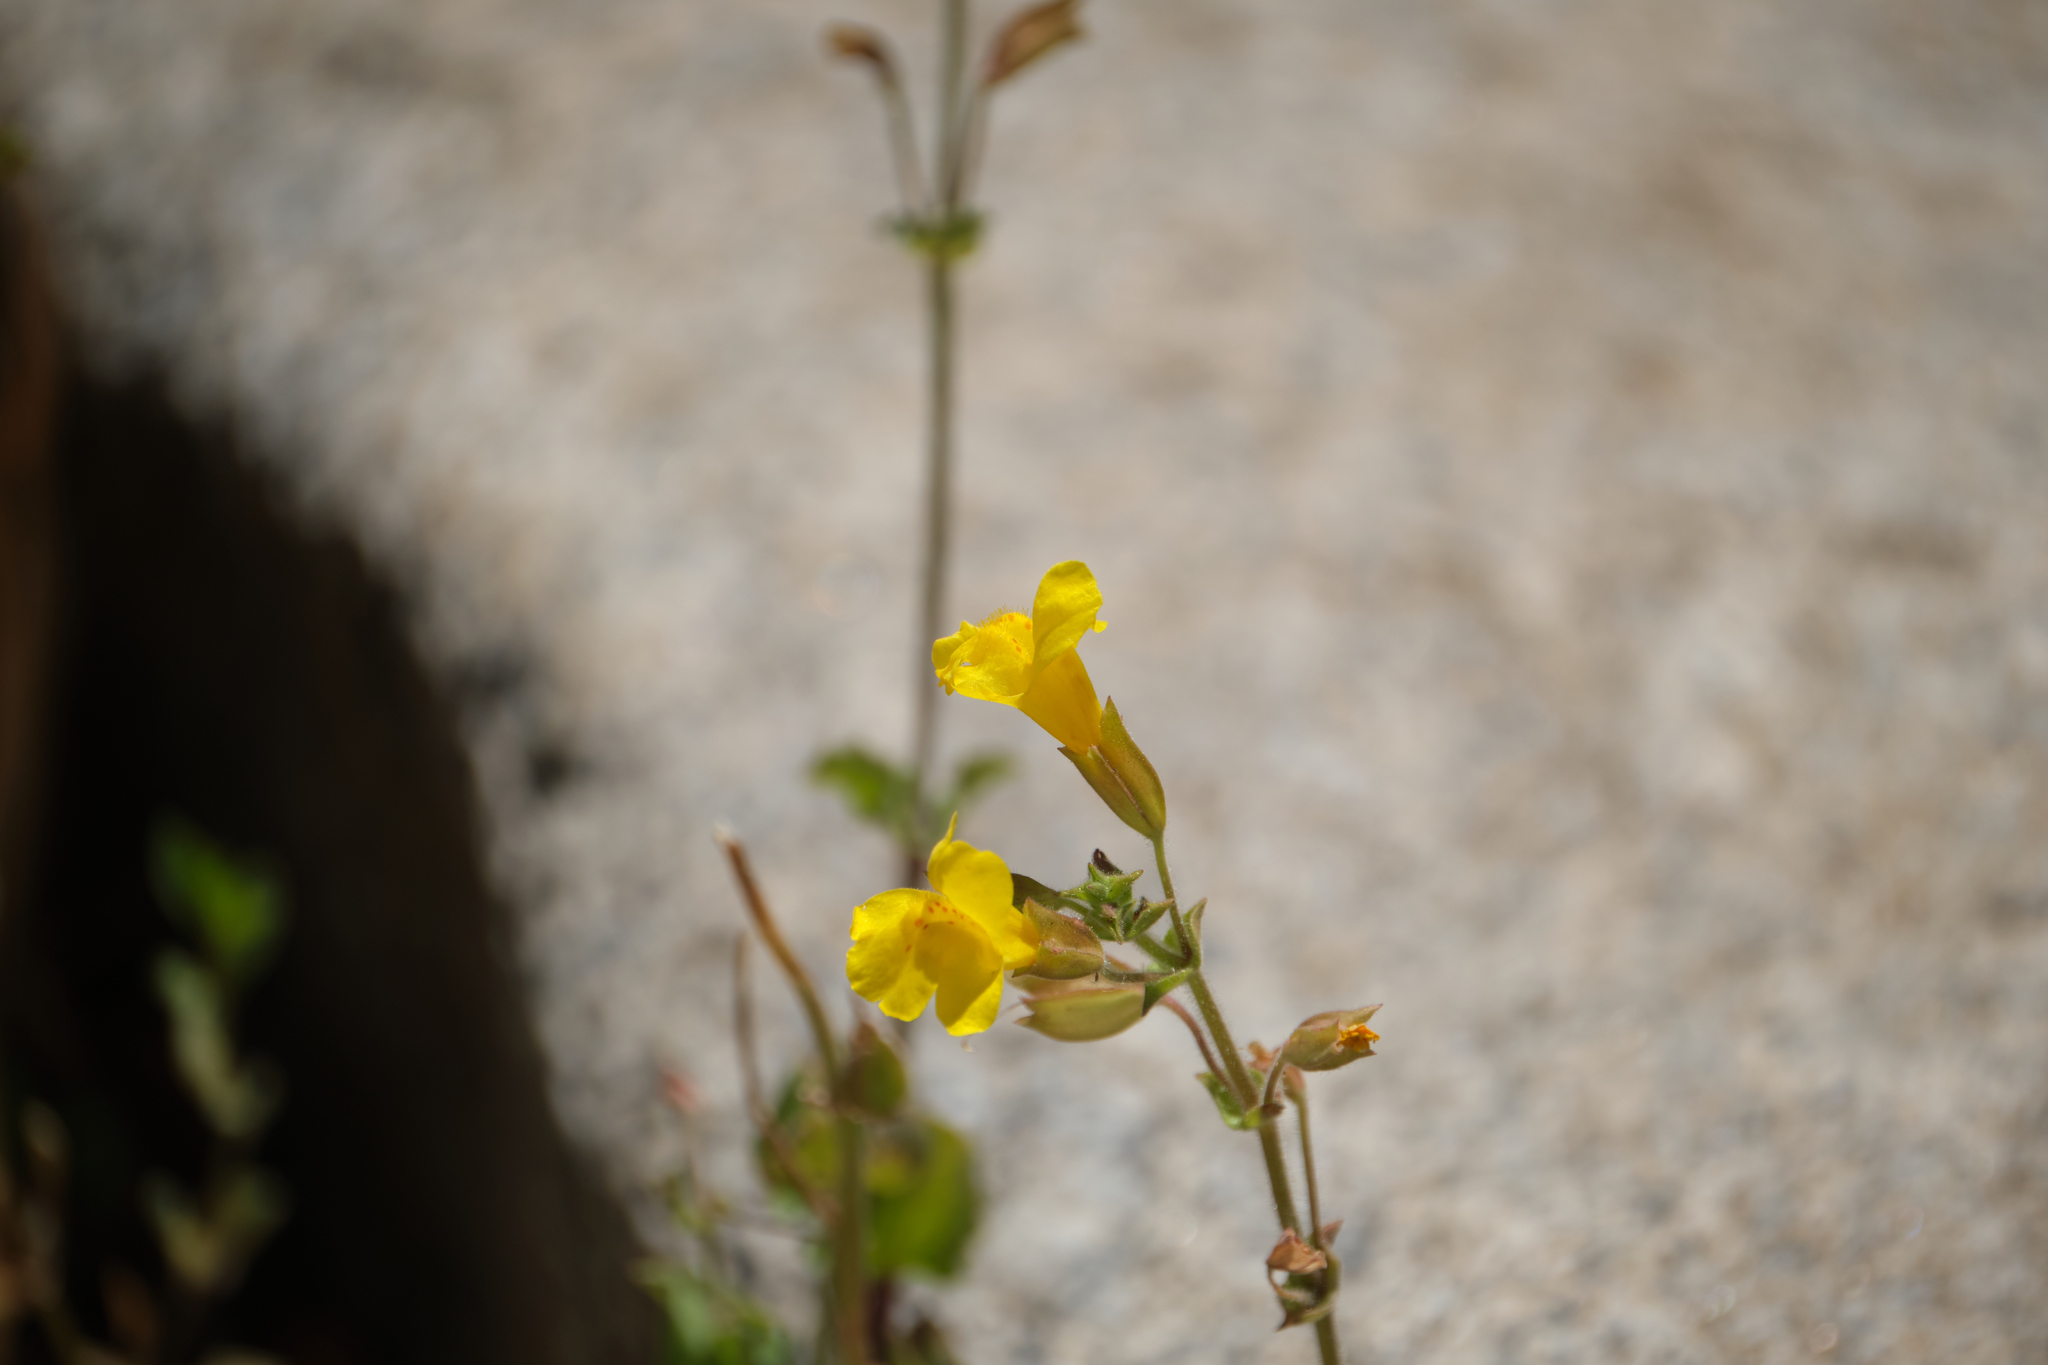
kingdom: Plantae
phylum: Tracheophyta
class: Magnoliopsida
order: Lamiales
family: Phrymaceae
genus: Erythranthe
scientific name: Erythranthe guttata
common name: Monkeyflower
